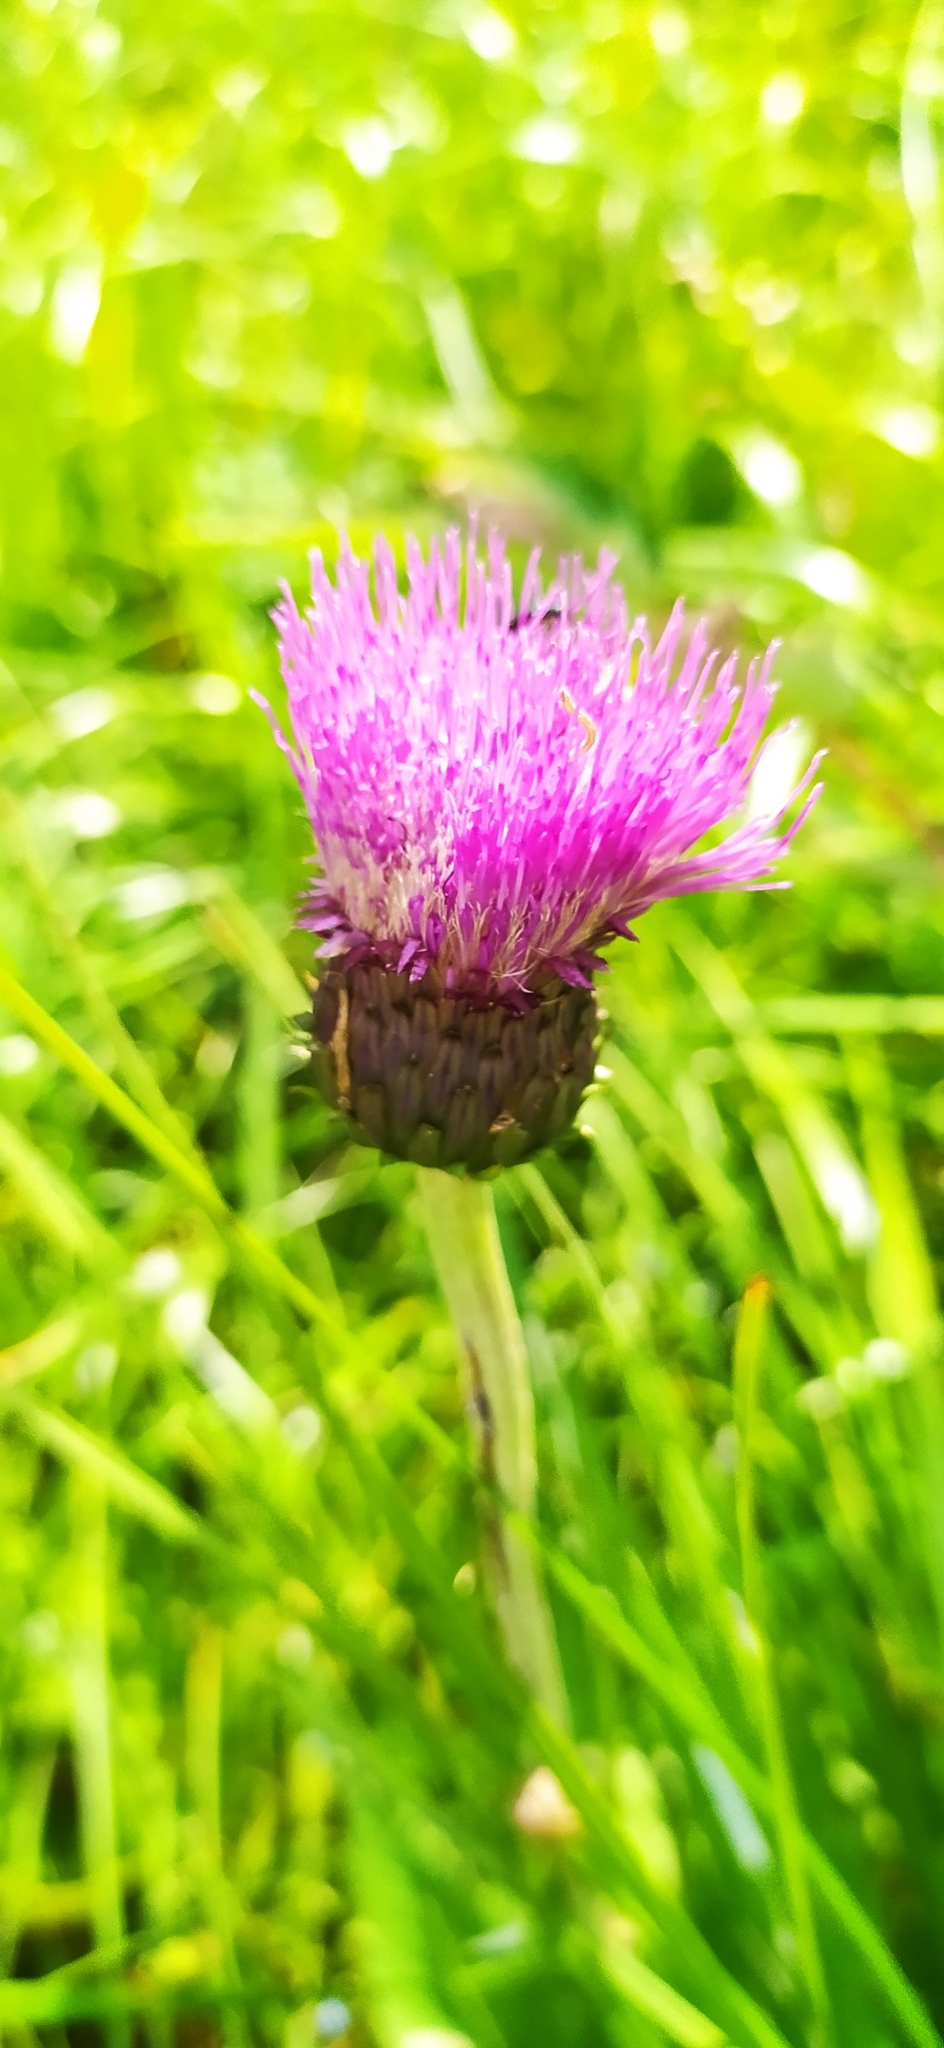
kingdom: Plantae
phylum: Tracheophyta
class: Magnoliopsida
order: Asterales
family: Asteraceae
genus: Cirsium
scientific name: Cirsium heterophyllum
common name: Melancholy thistle
